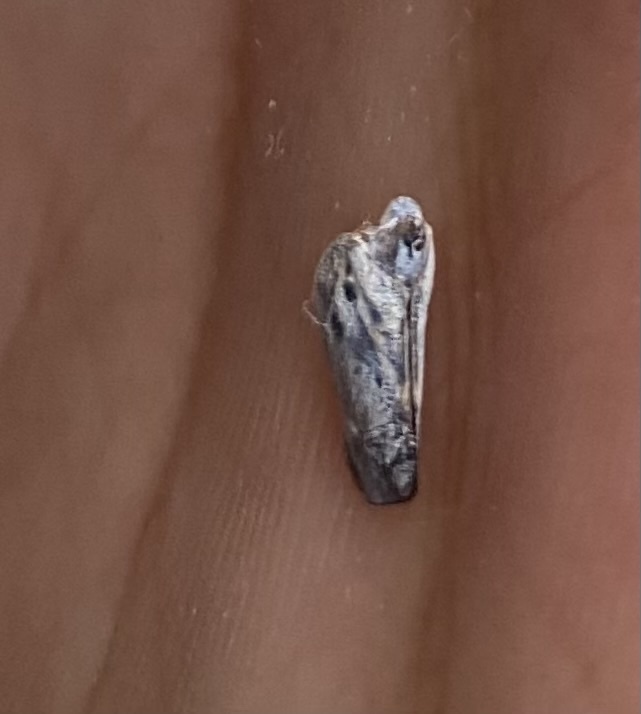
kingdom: Animalia
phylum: Arthropoda
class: Insecta
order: Hemiptera
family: Flatidae
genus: Metcalfa
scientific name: Metcalfa pruinosa
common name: Citrus flatid planthopper
